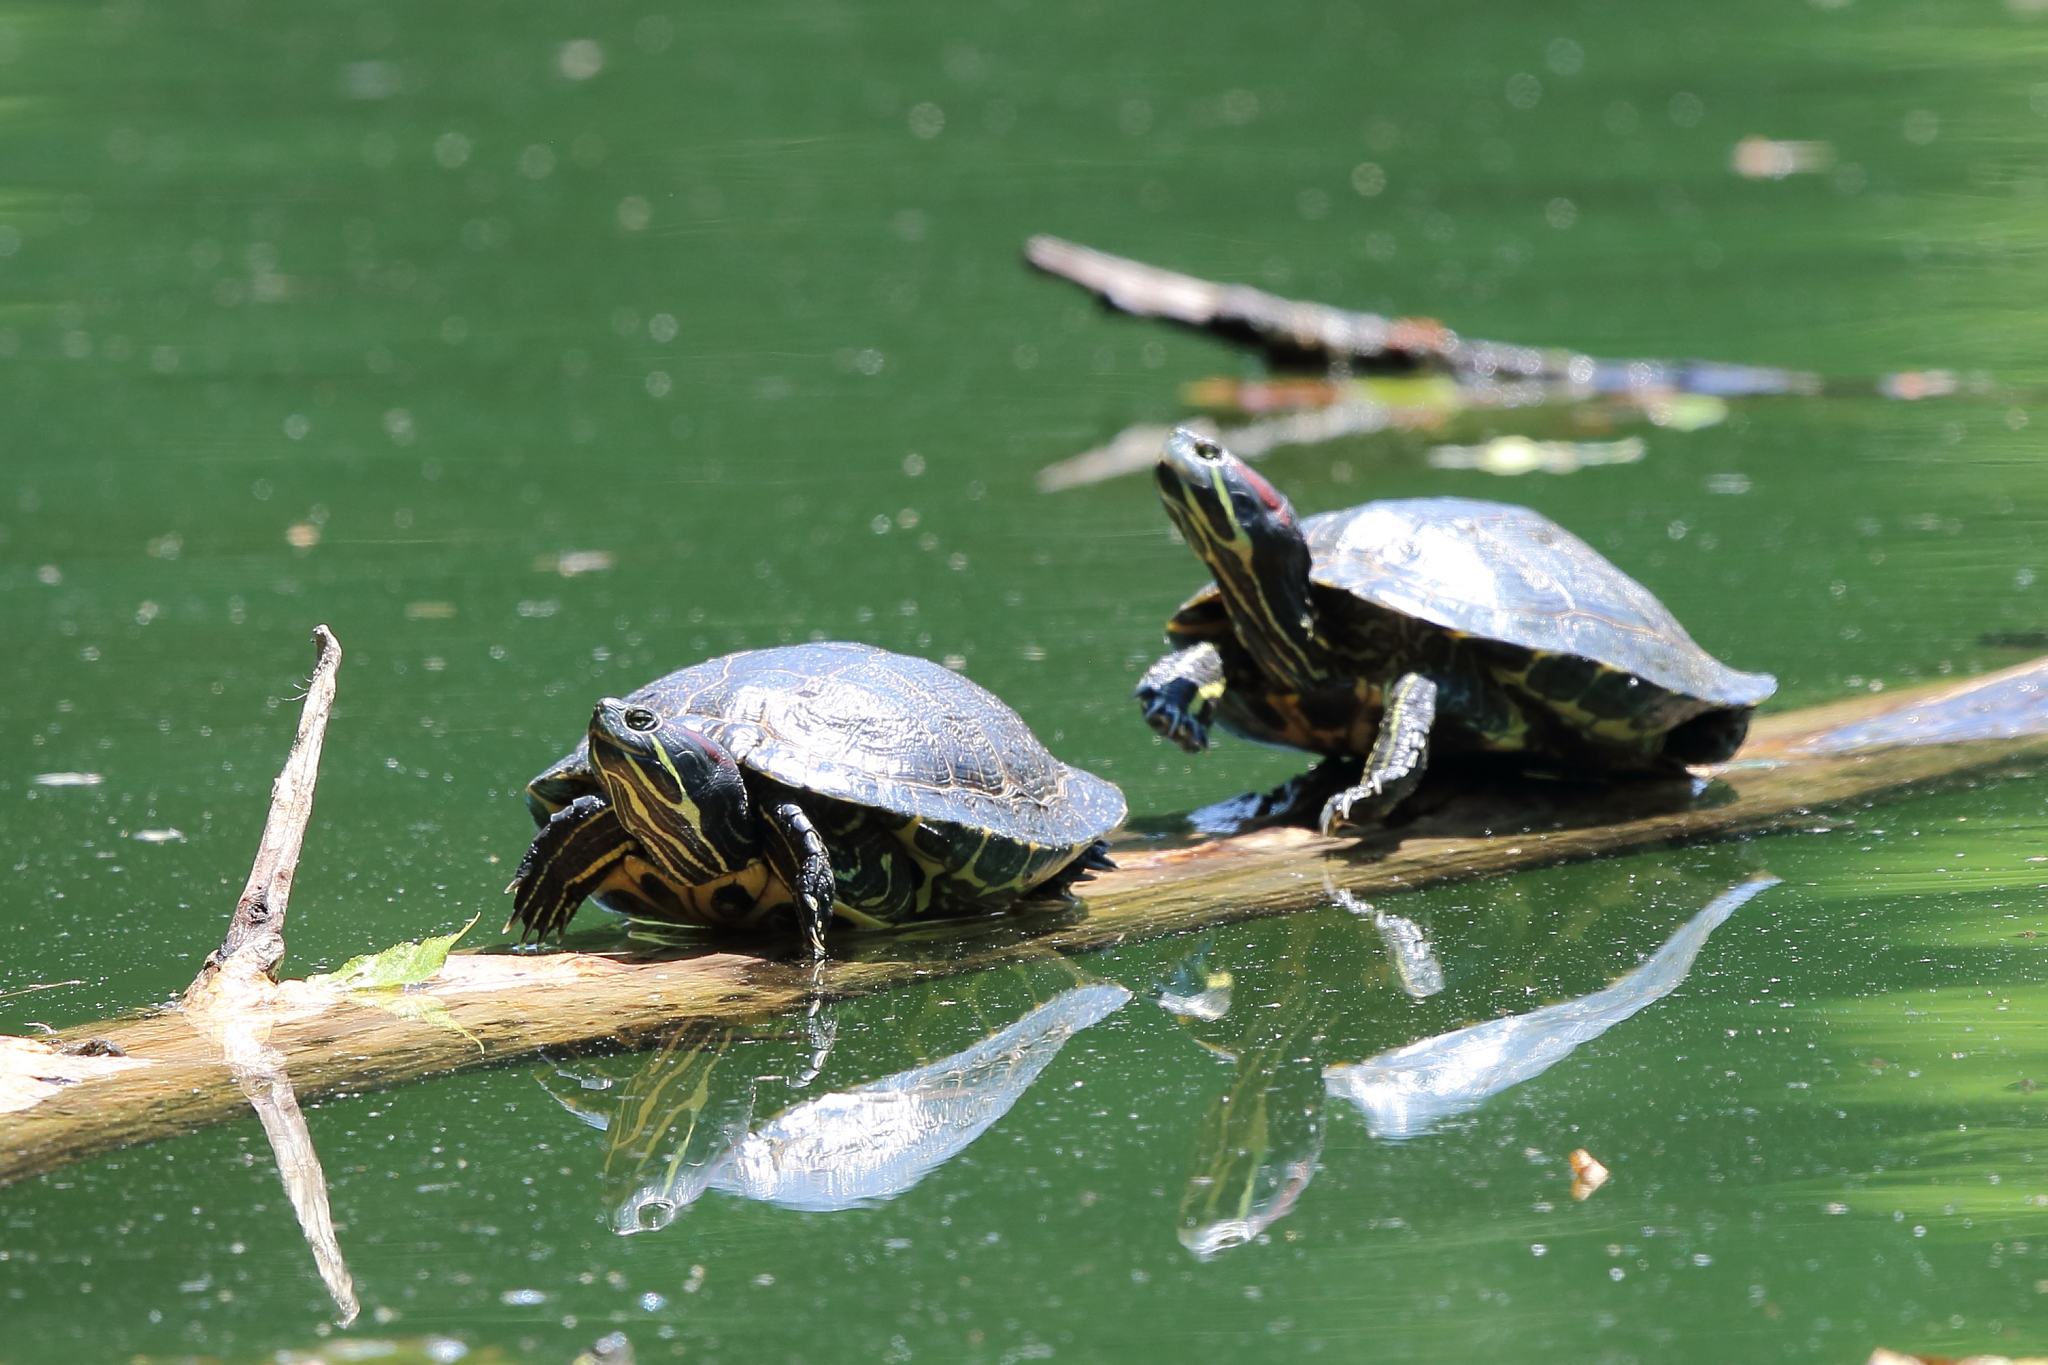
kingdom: Animalia
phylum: Chordata
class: Testudines
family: Emydidae
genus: Trachemys
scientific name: Trachemys scripta
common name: Slider
